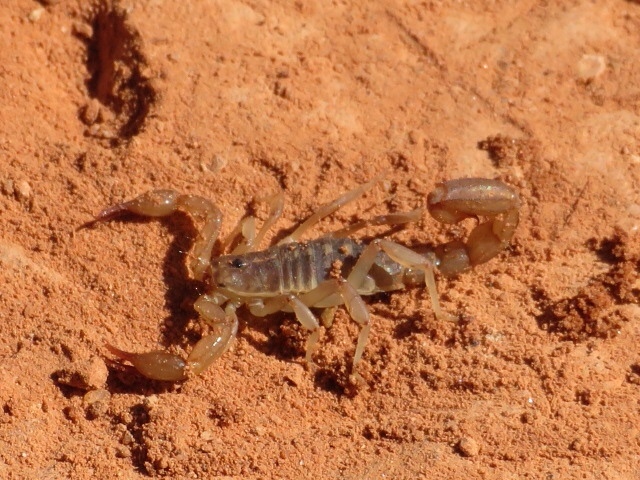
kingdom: Animalia
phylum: Arthropoda
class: Arachnida
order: Scorpiones
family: Vaejovidae
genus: Chihuahuanus
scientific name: Chihuahuanus coahuilae
